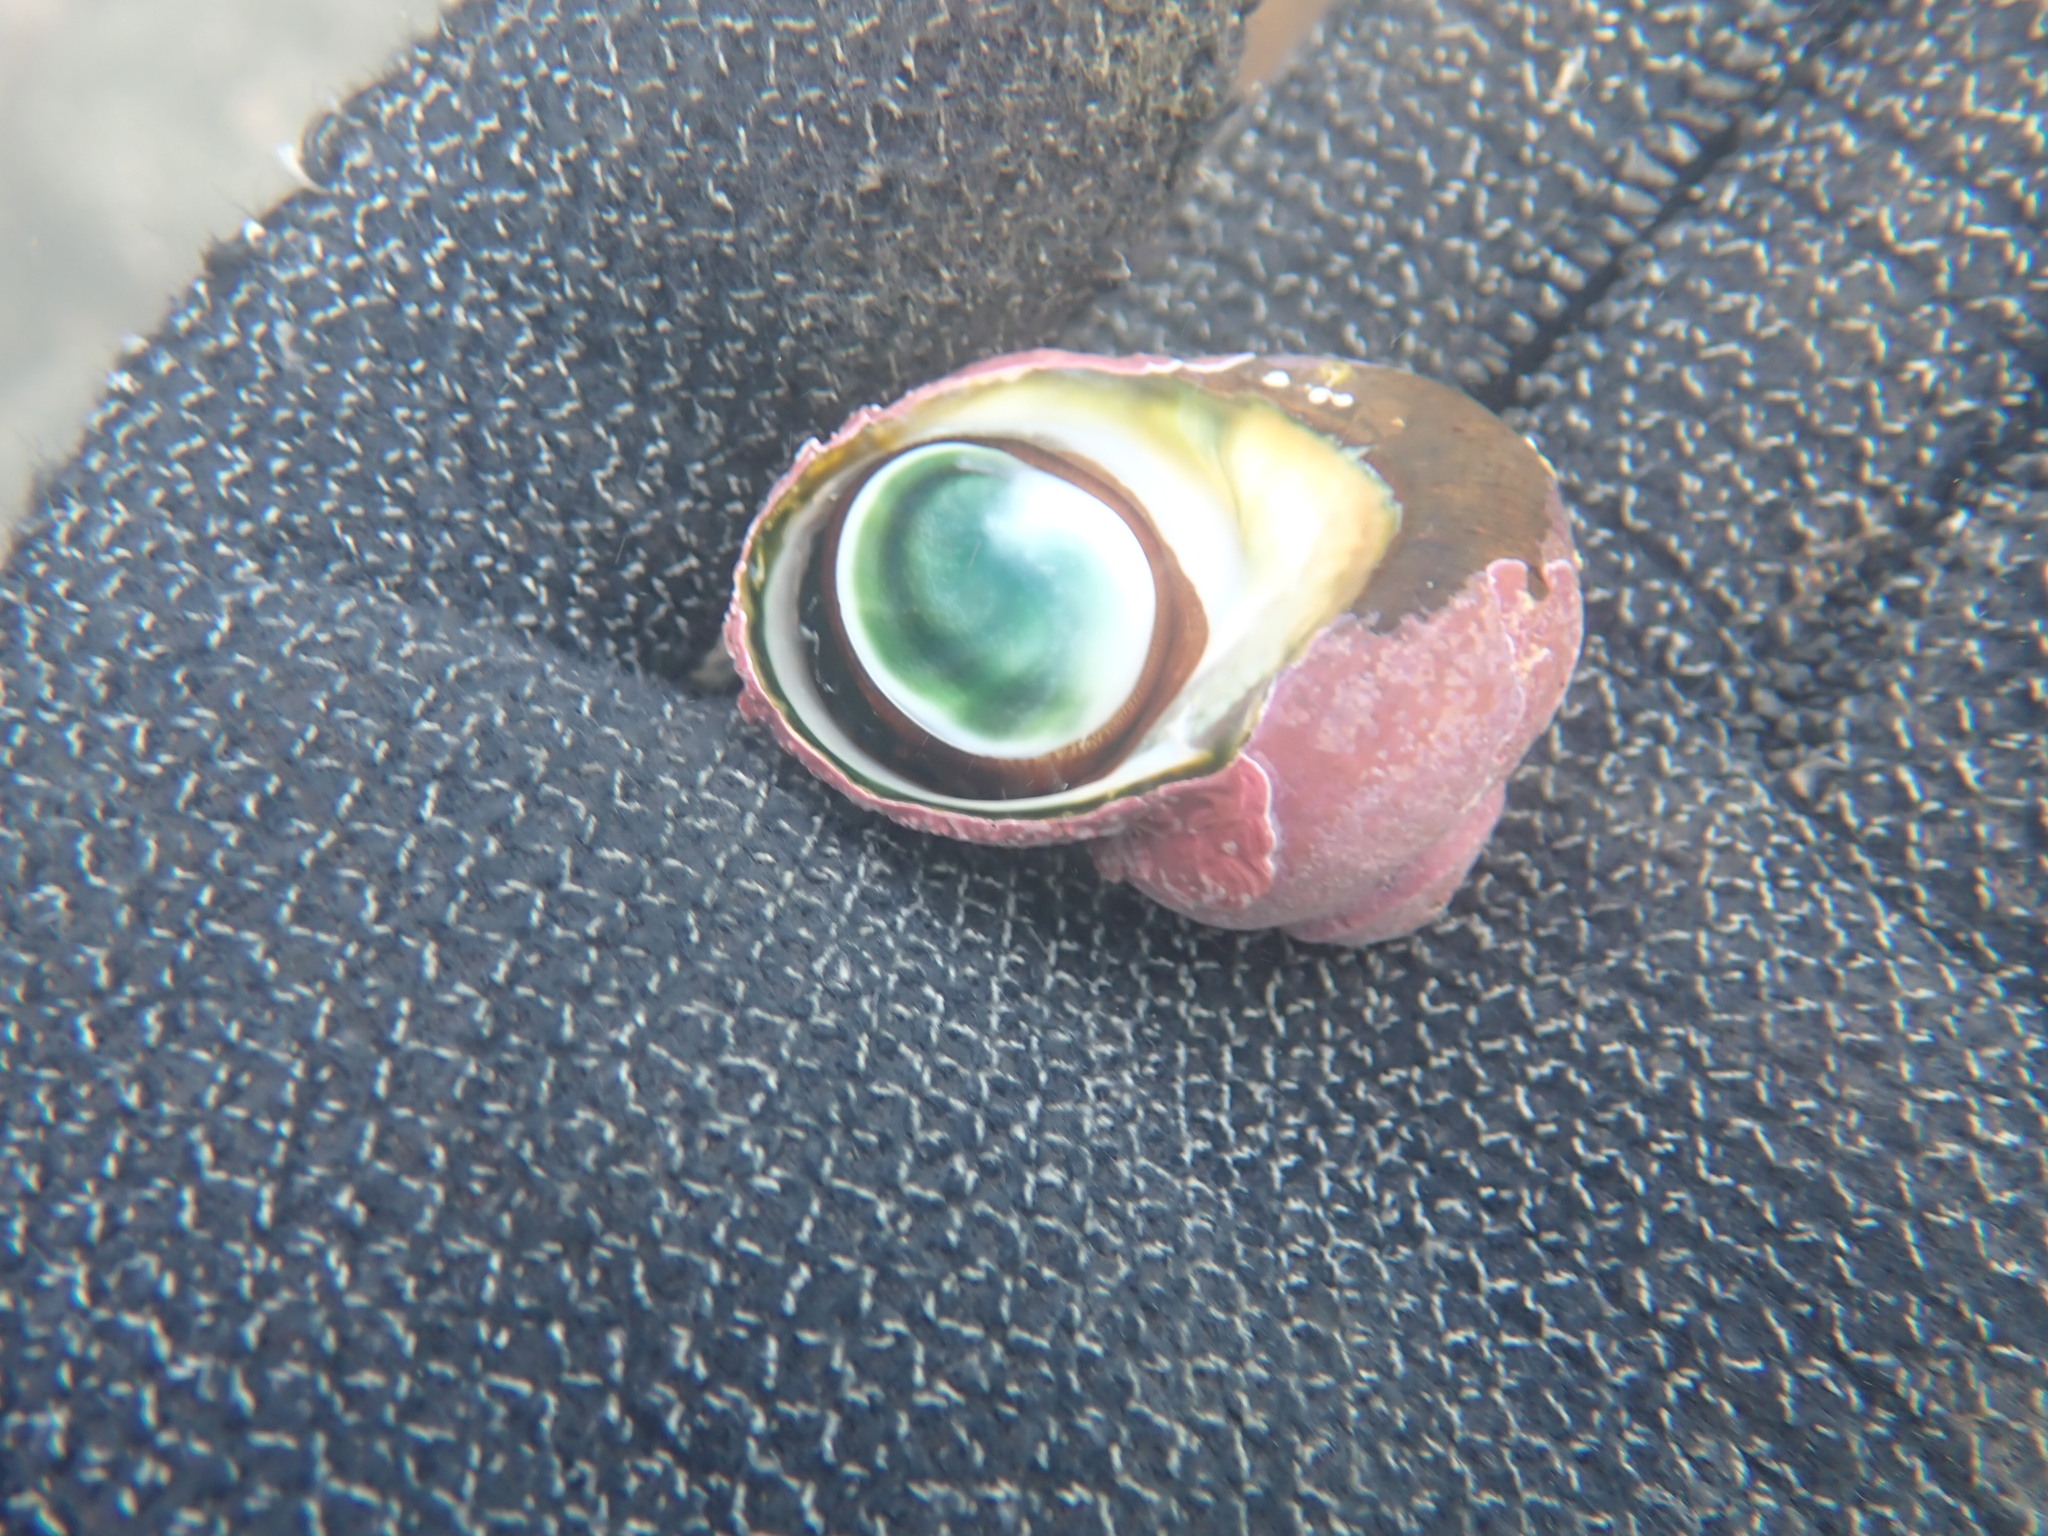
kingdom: Animalia
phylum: Mollusca
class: Gastropoda
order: Trochida
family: Turbinidae
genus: Lunella
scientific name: Lunella smaragda
